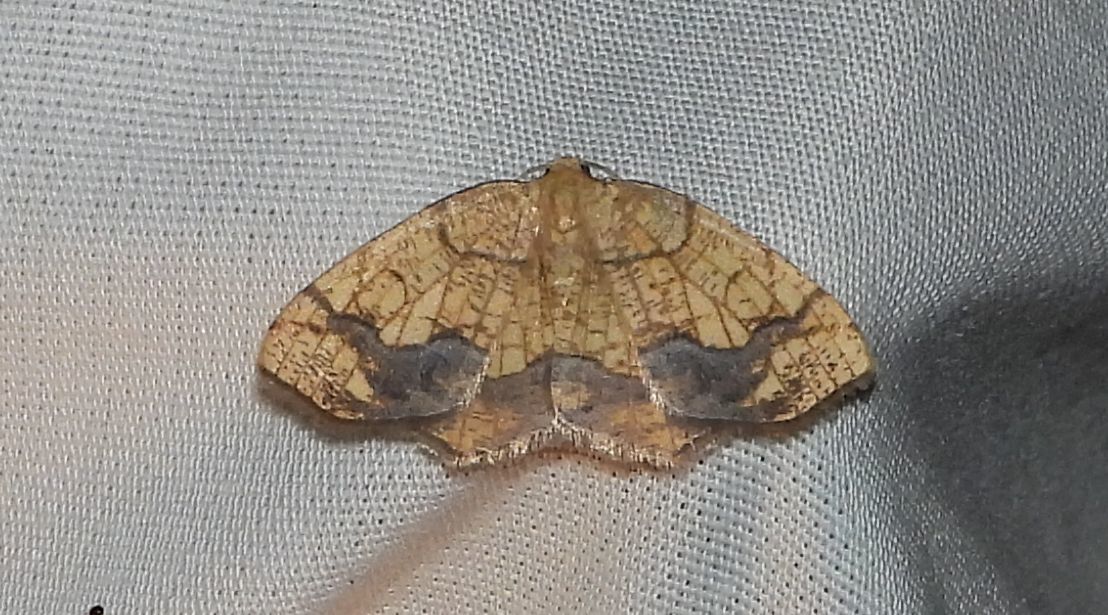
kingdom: Animalia
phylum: Arthropoda
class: Insecta
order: Lepidoptera
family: Geometridae
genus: Nematocampa
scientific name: Nematocampa resistaria
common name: Horned spanworm moth
